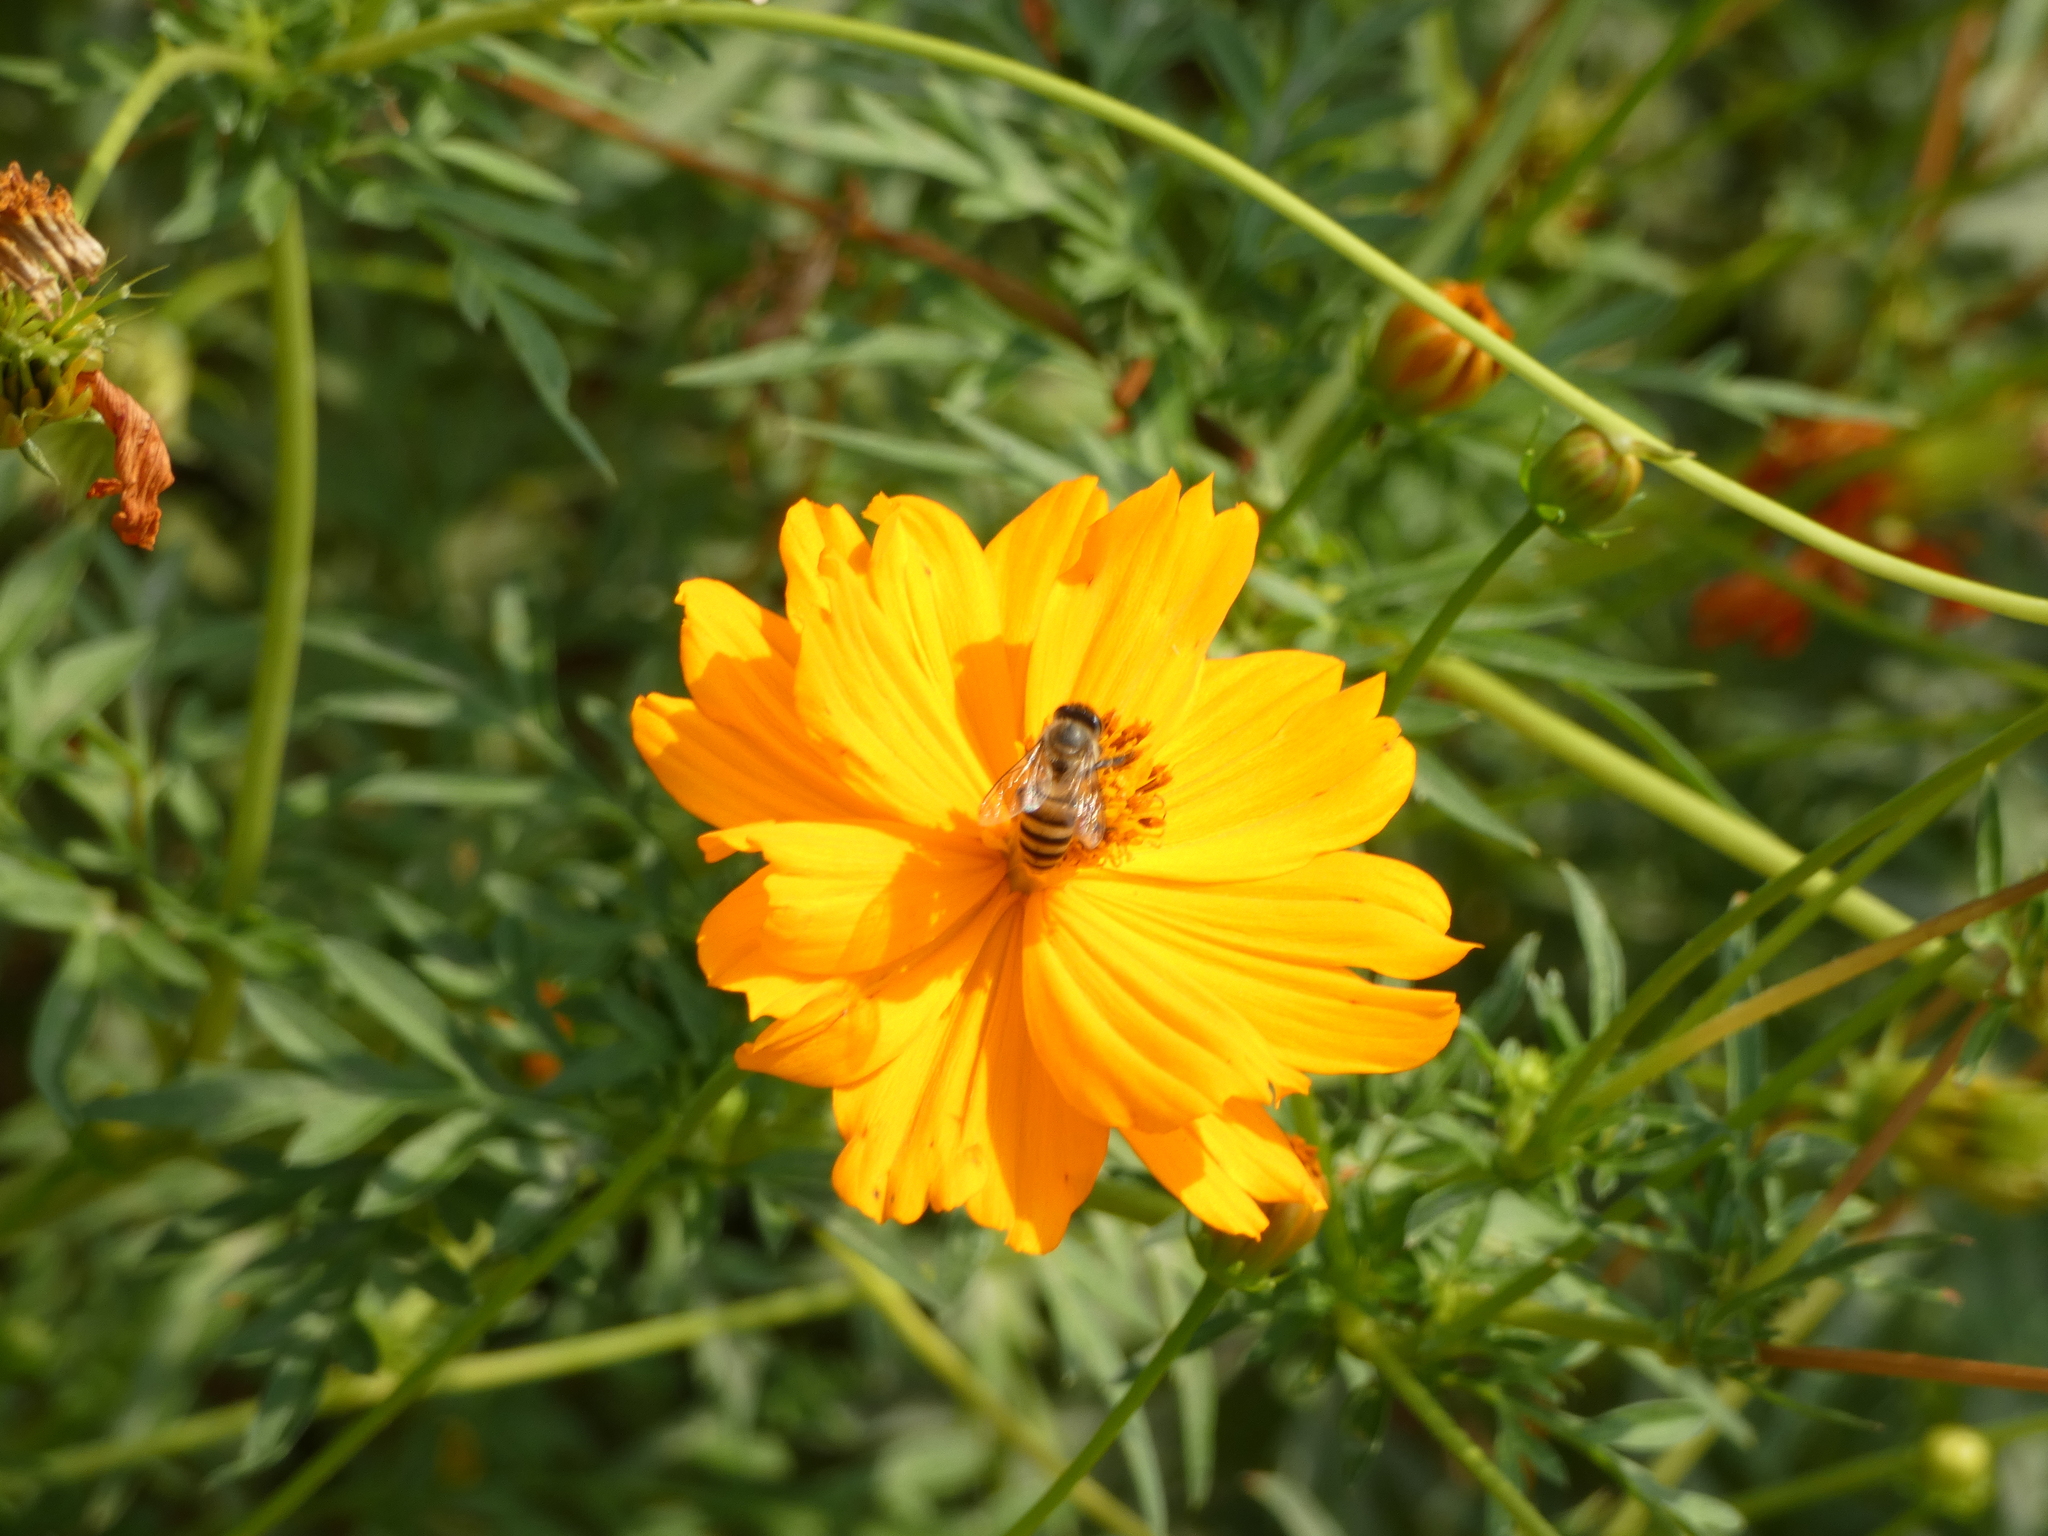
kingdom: Animalia
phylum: Arthropoda
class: Insecta
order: Hymenoptera
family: Apidae
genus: Apis
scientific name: Apis cerana
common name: Honey bee
